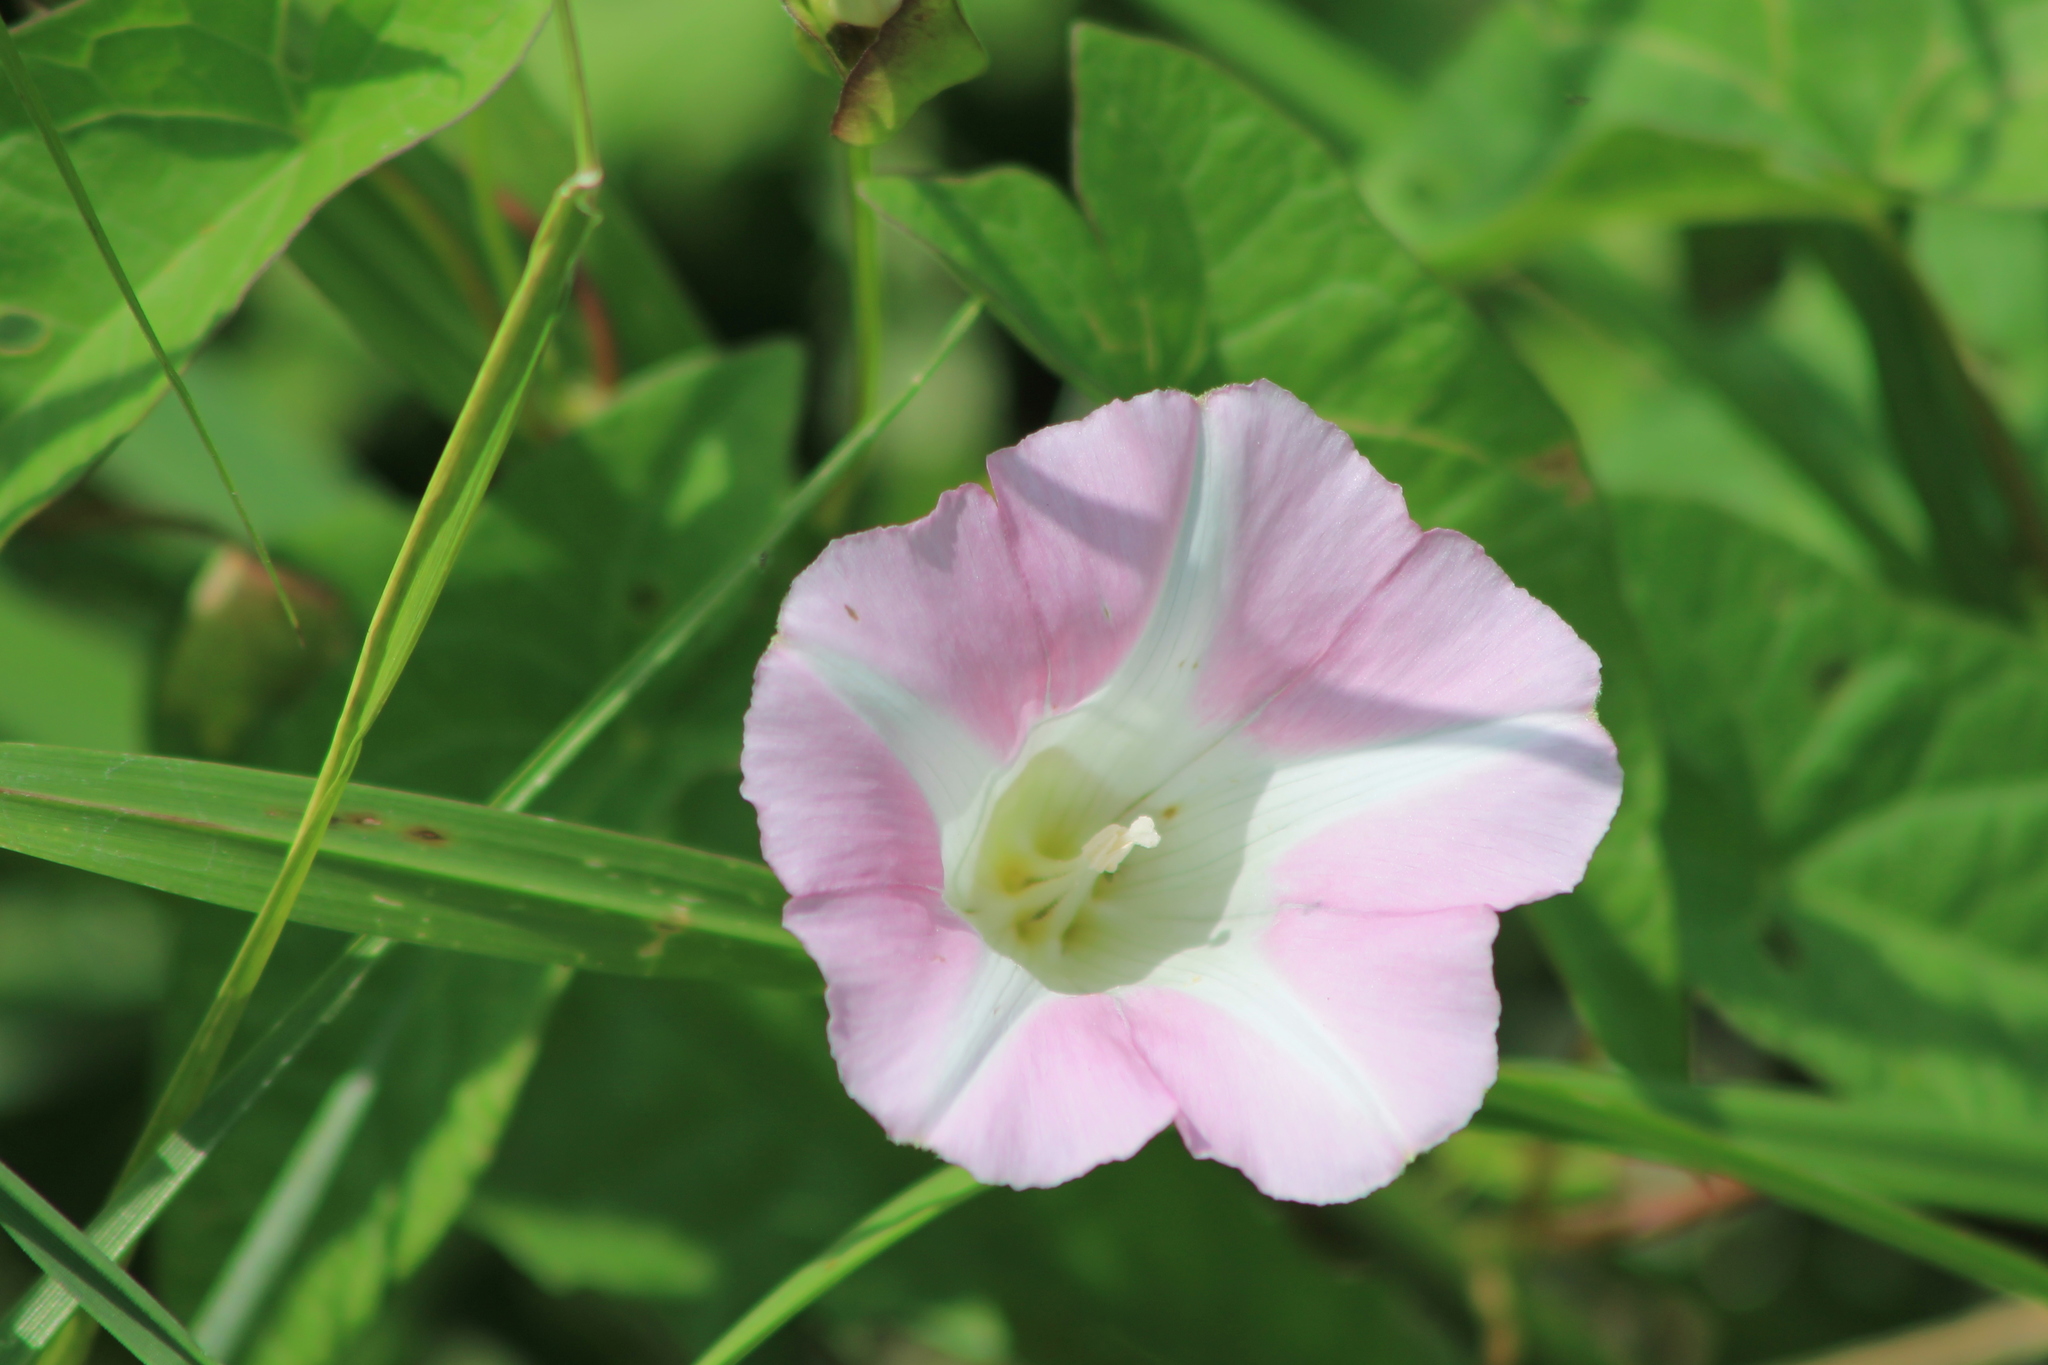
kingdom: Plantae
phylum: Tracheophyta
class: Magnoliopsida
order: Solanales
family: Convolvulaceae
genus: Calystegia
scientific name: Calystegia sepium
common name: Hedge bindweed
